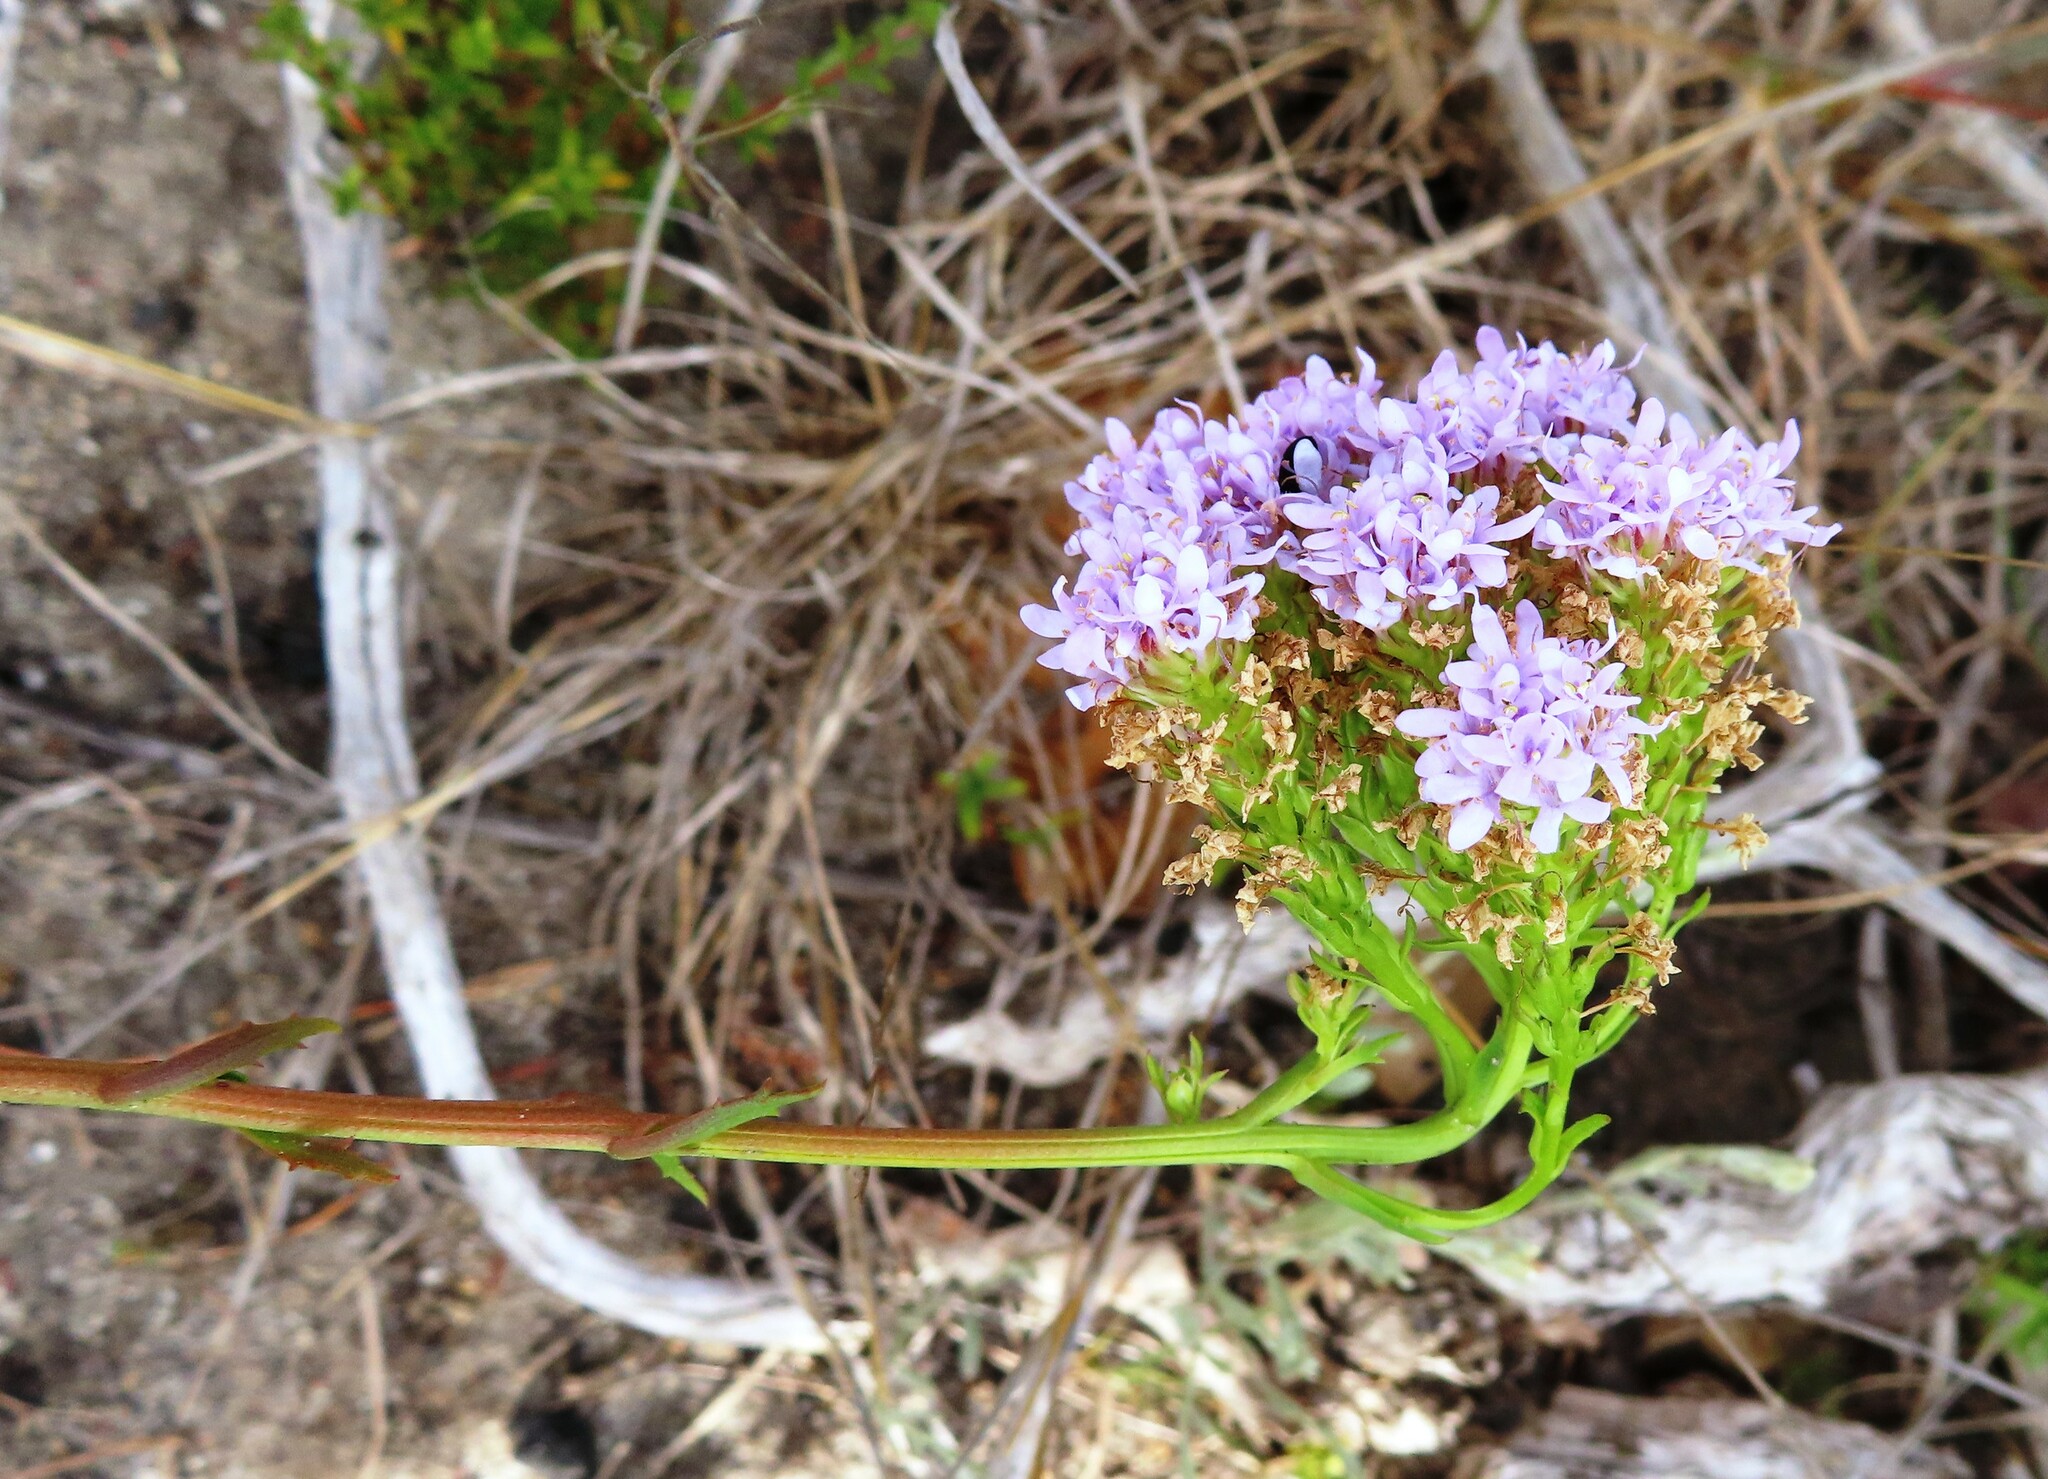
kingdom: Plantae
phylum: Tracheophyta
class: Magnoliopsida
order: Lamiales
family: Scrophulariaceae
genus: Pseudoselago
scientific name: Pseudoselago spuria
